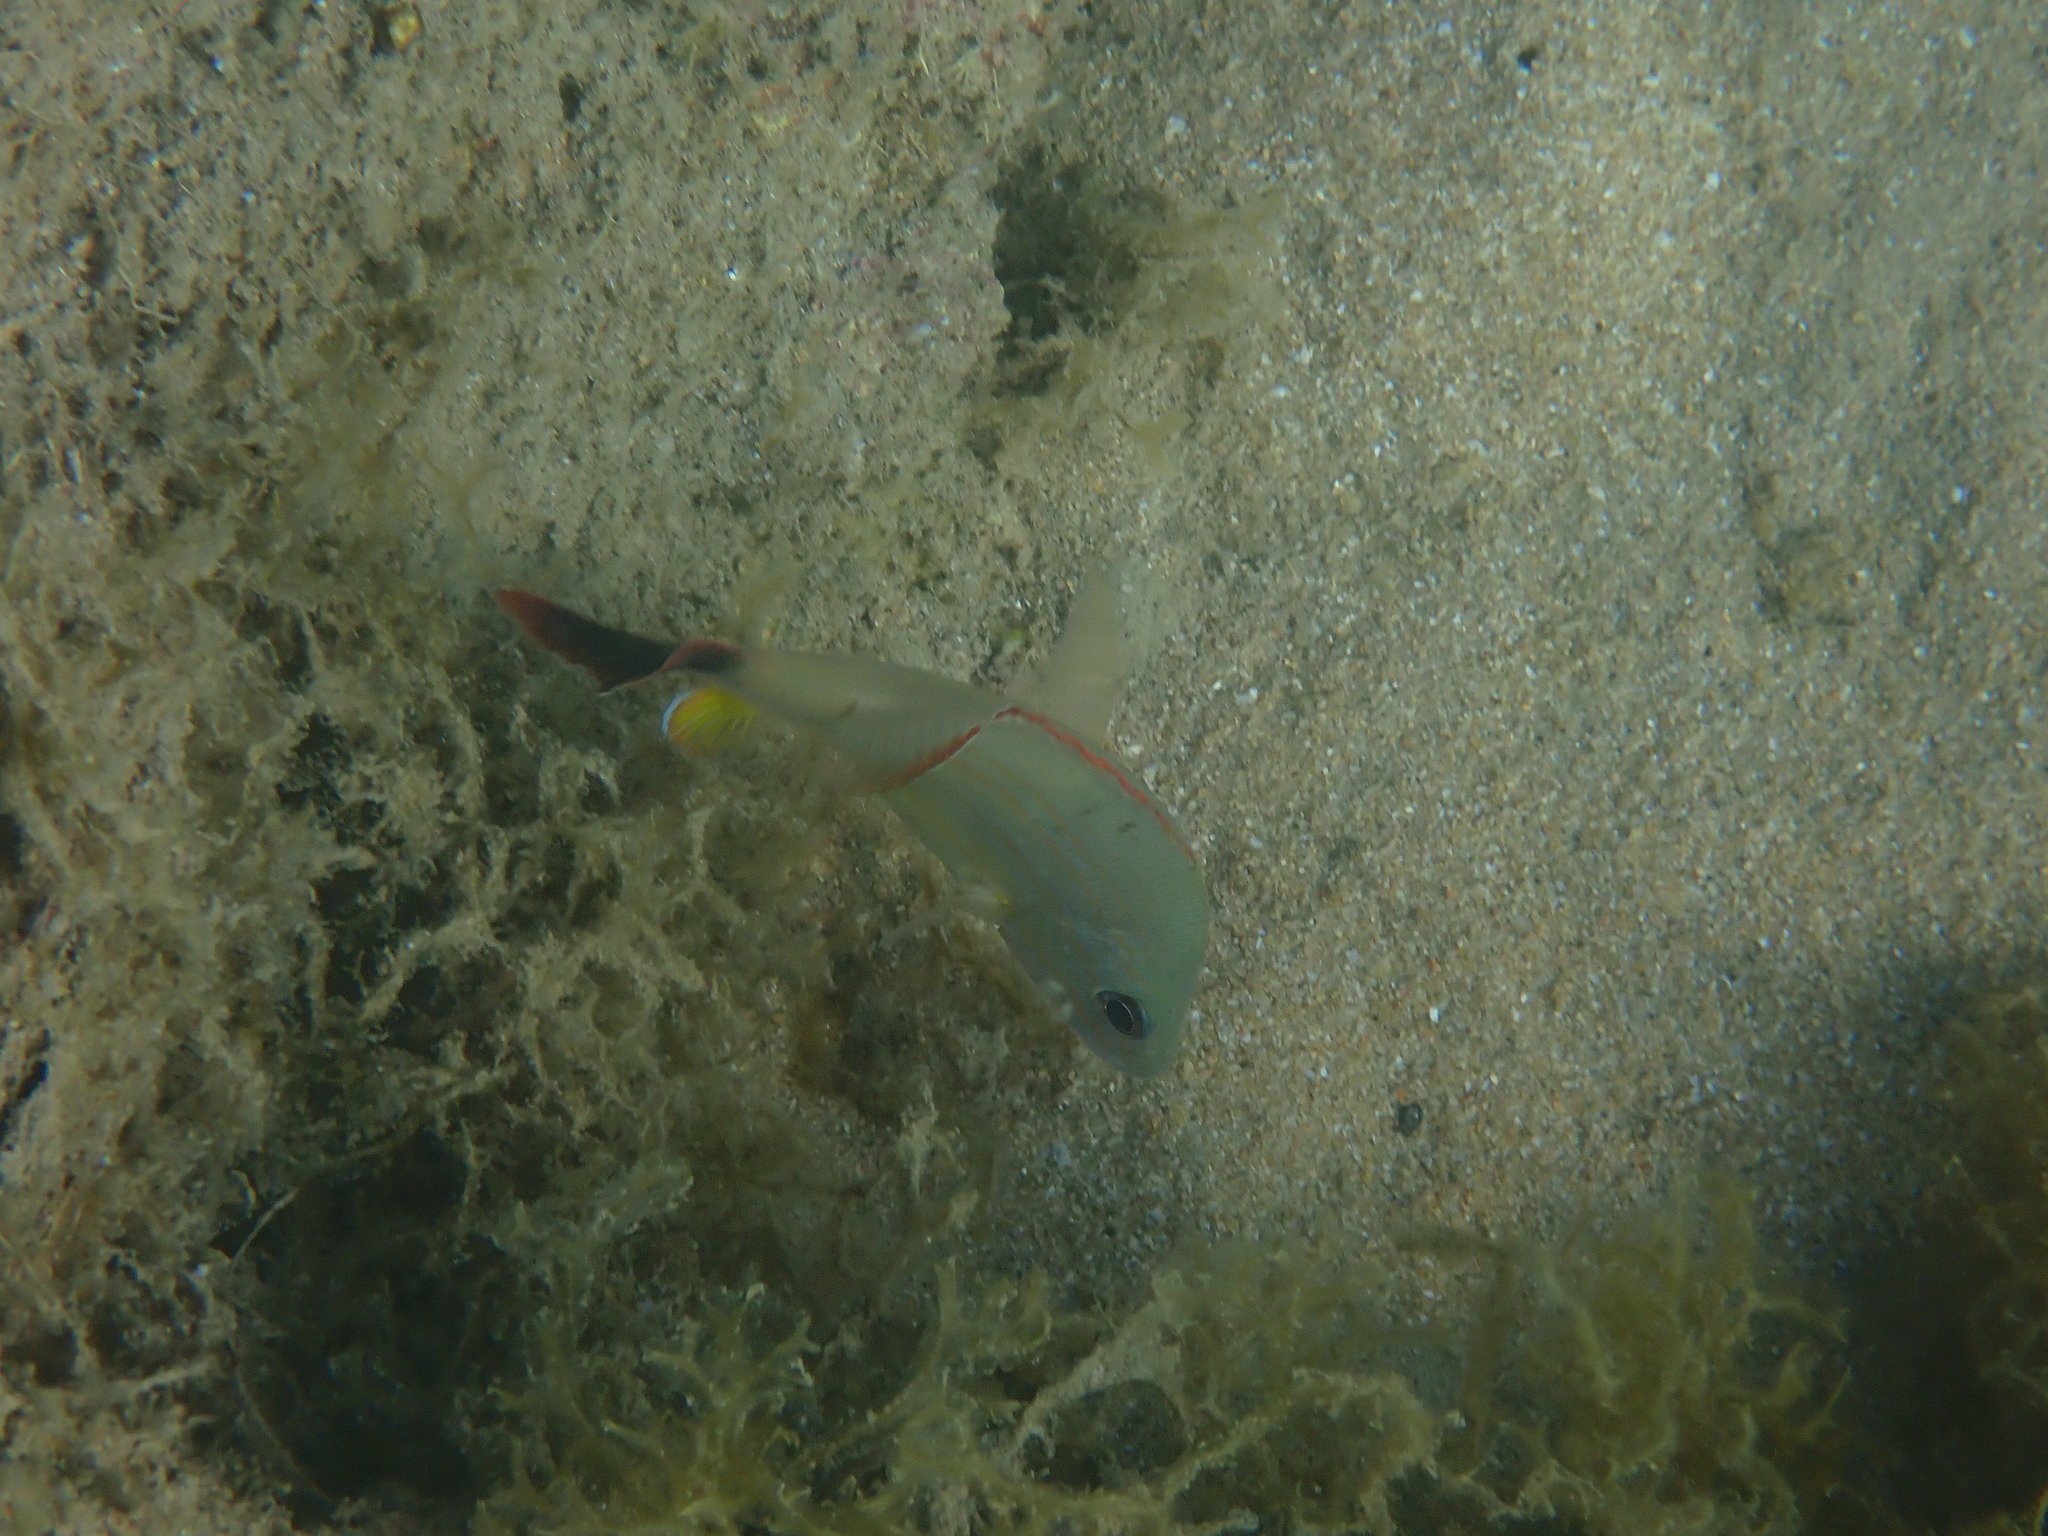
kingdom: Animalia
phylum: Chordata
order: Perciformes
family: Lutjanidae
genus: Lutjanus
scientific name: Lutjanus fulvus
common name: Blacktail snapper
